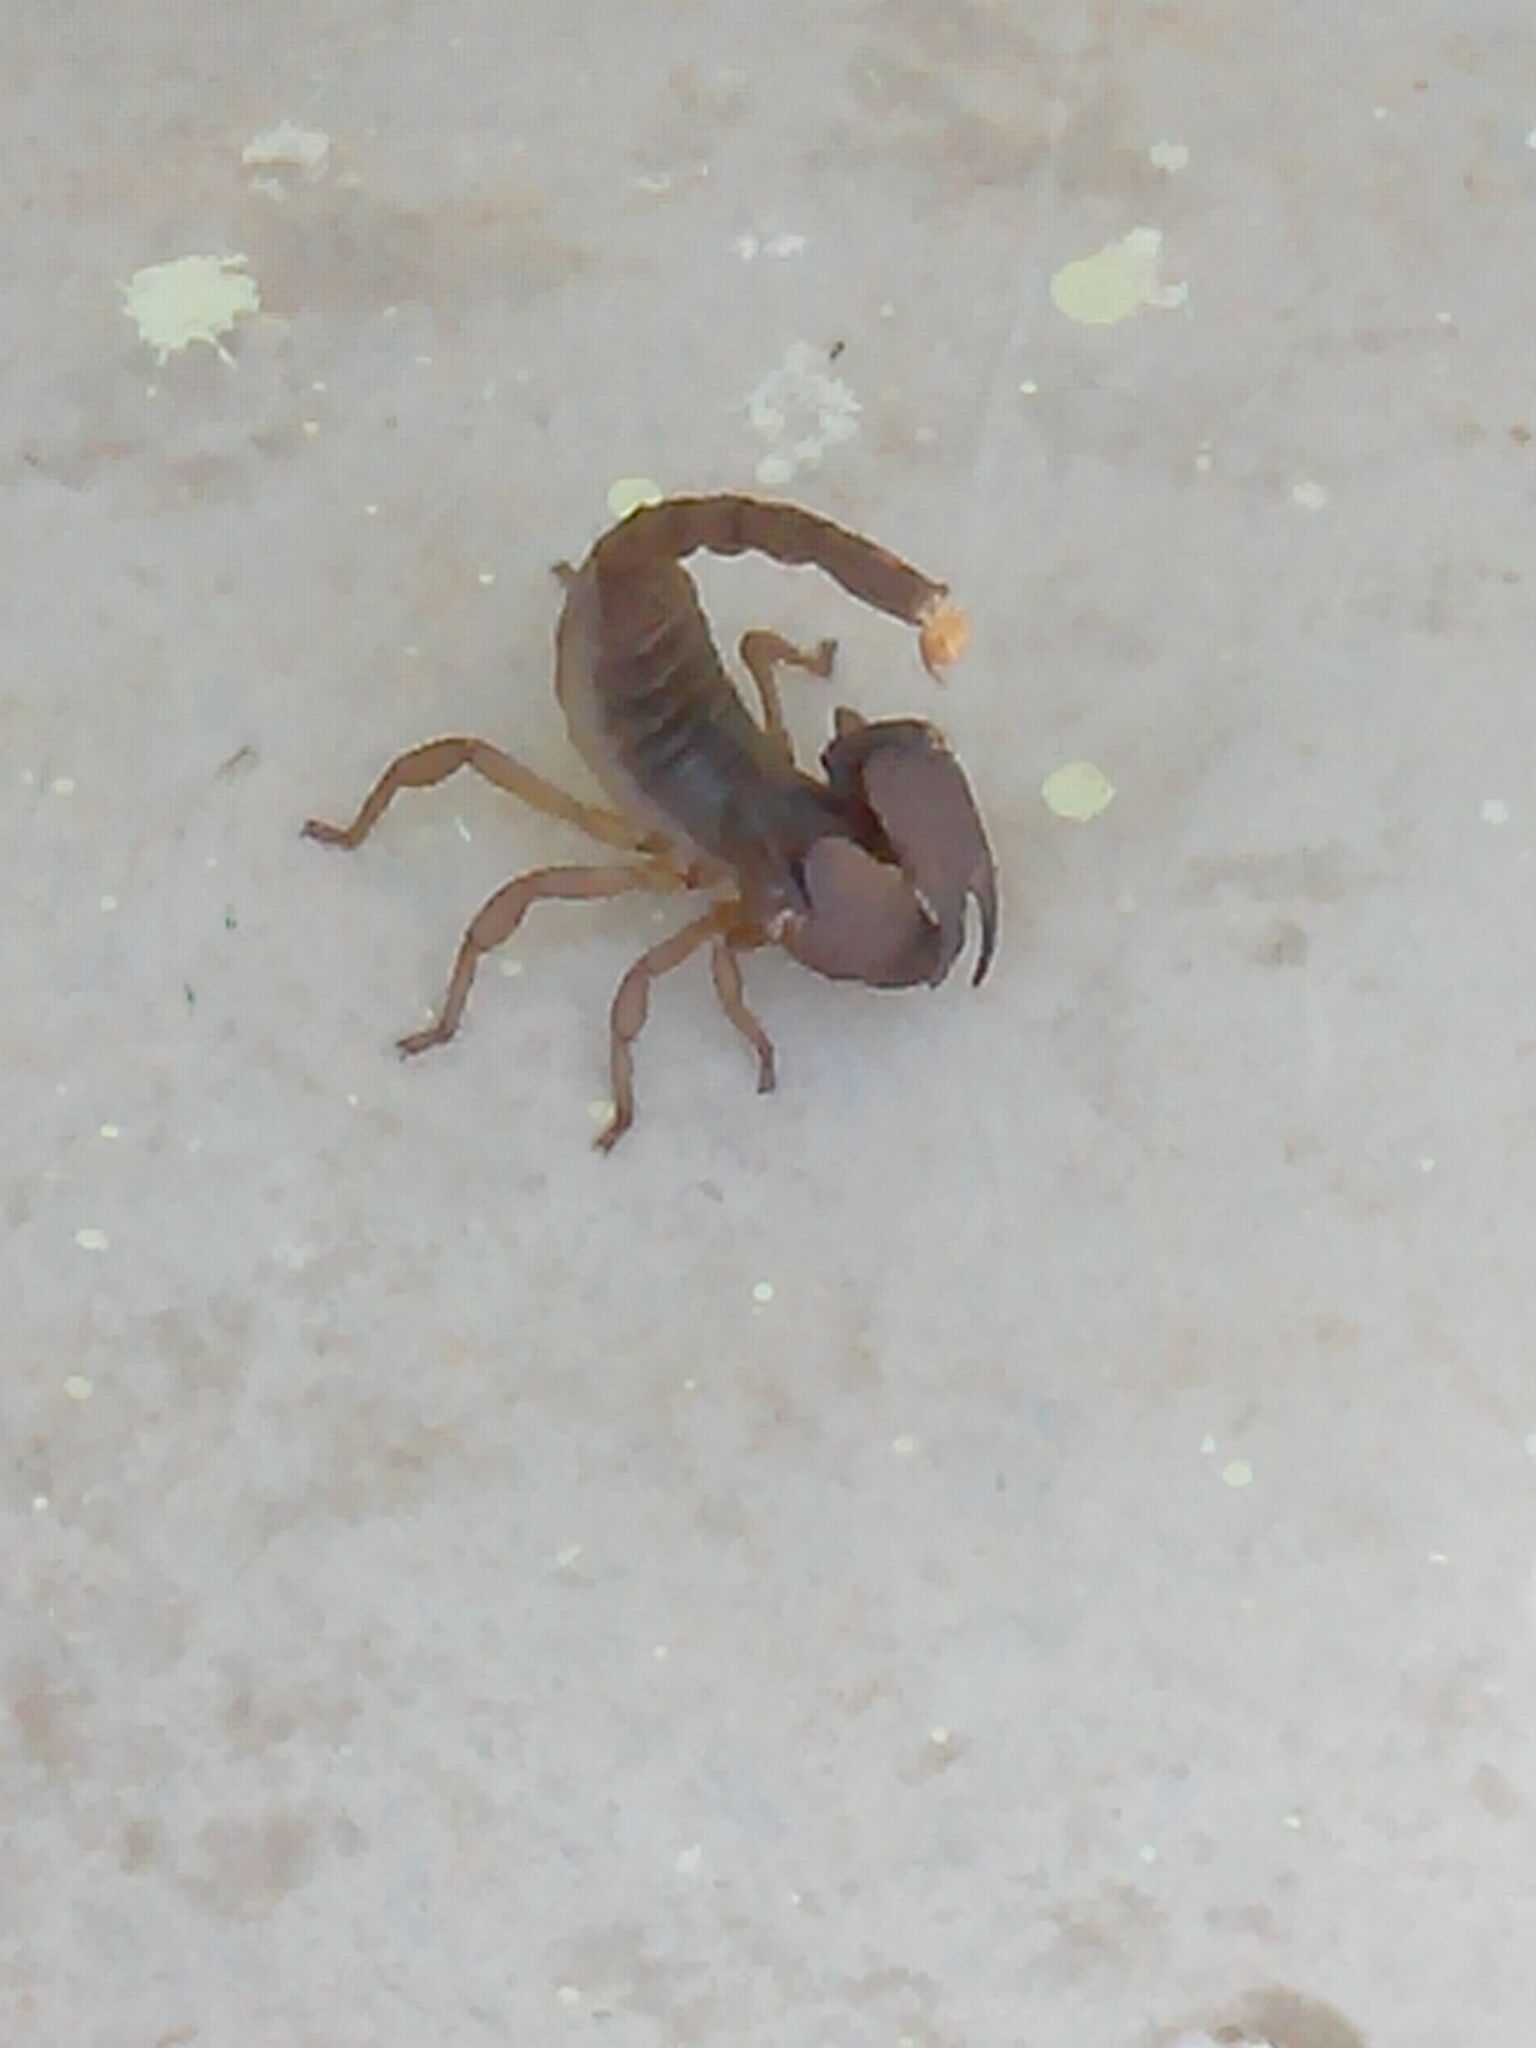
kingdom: Animalia
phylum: Arthropoda
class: Arachnida
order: Scorpiones
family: Scorpionidae
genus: Gigantometrus
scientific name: Gigantometrus swammerdami
